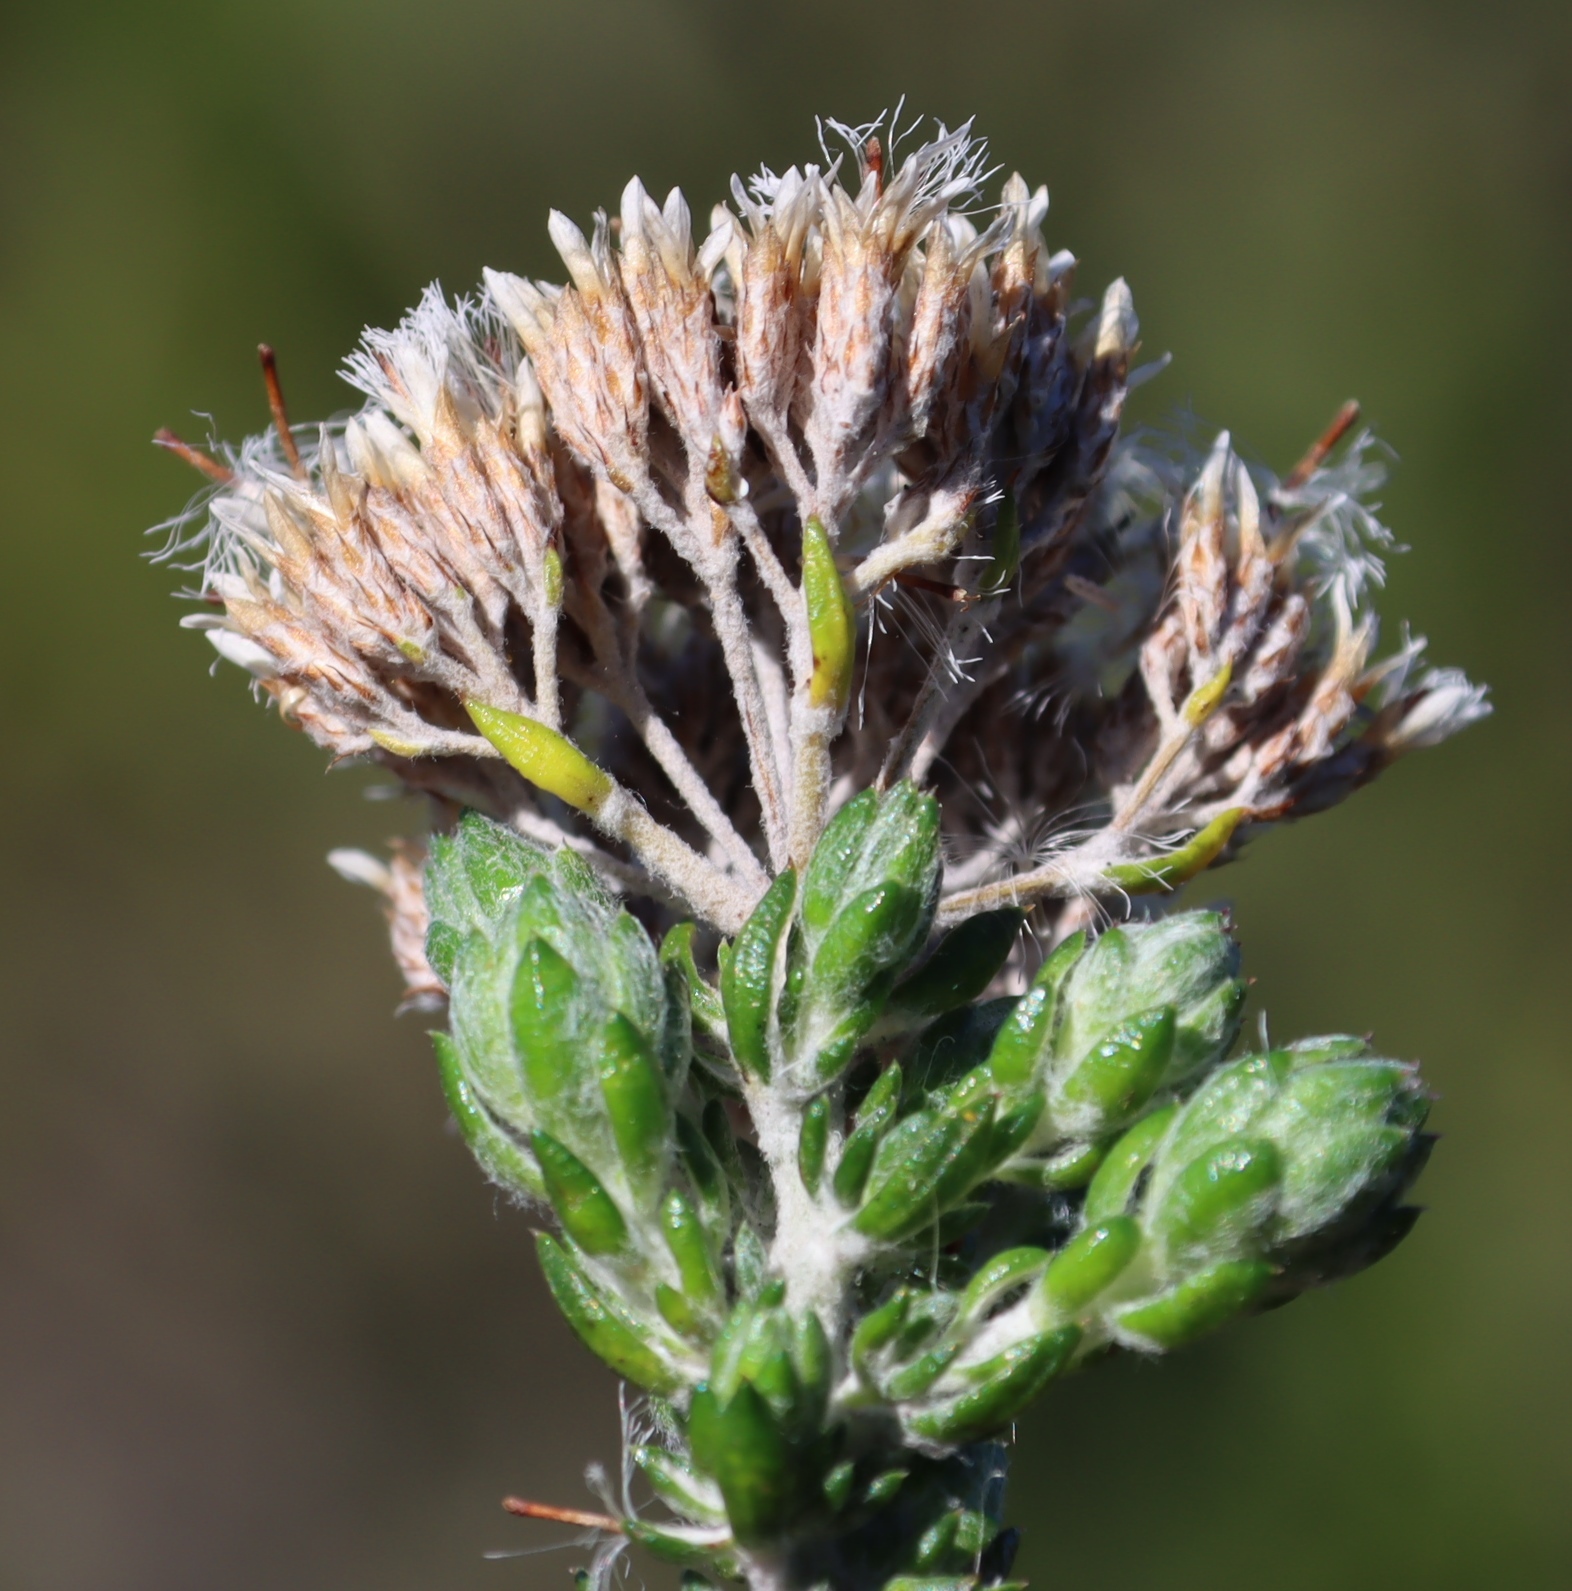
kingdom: Plantae
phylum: Tracheophyta
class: Magnoliopsida
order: Asterales
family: Asteraceae
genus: Metalasia
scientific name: Metalasia pungens
